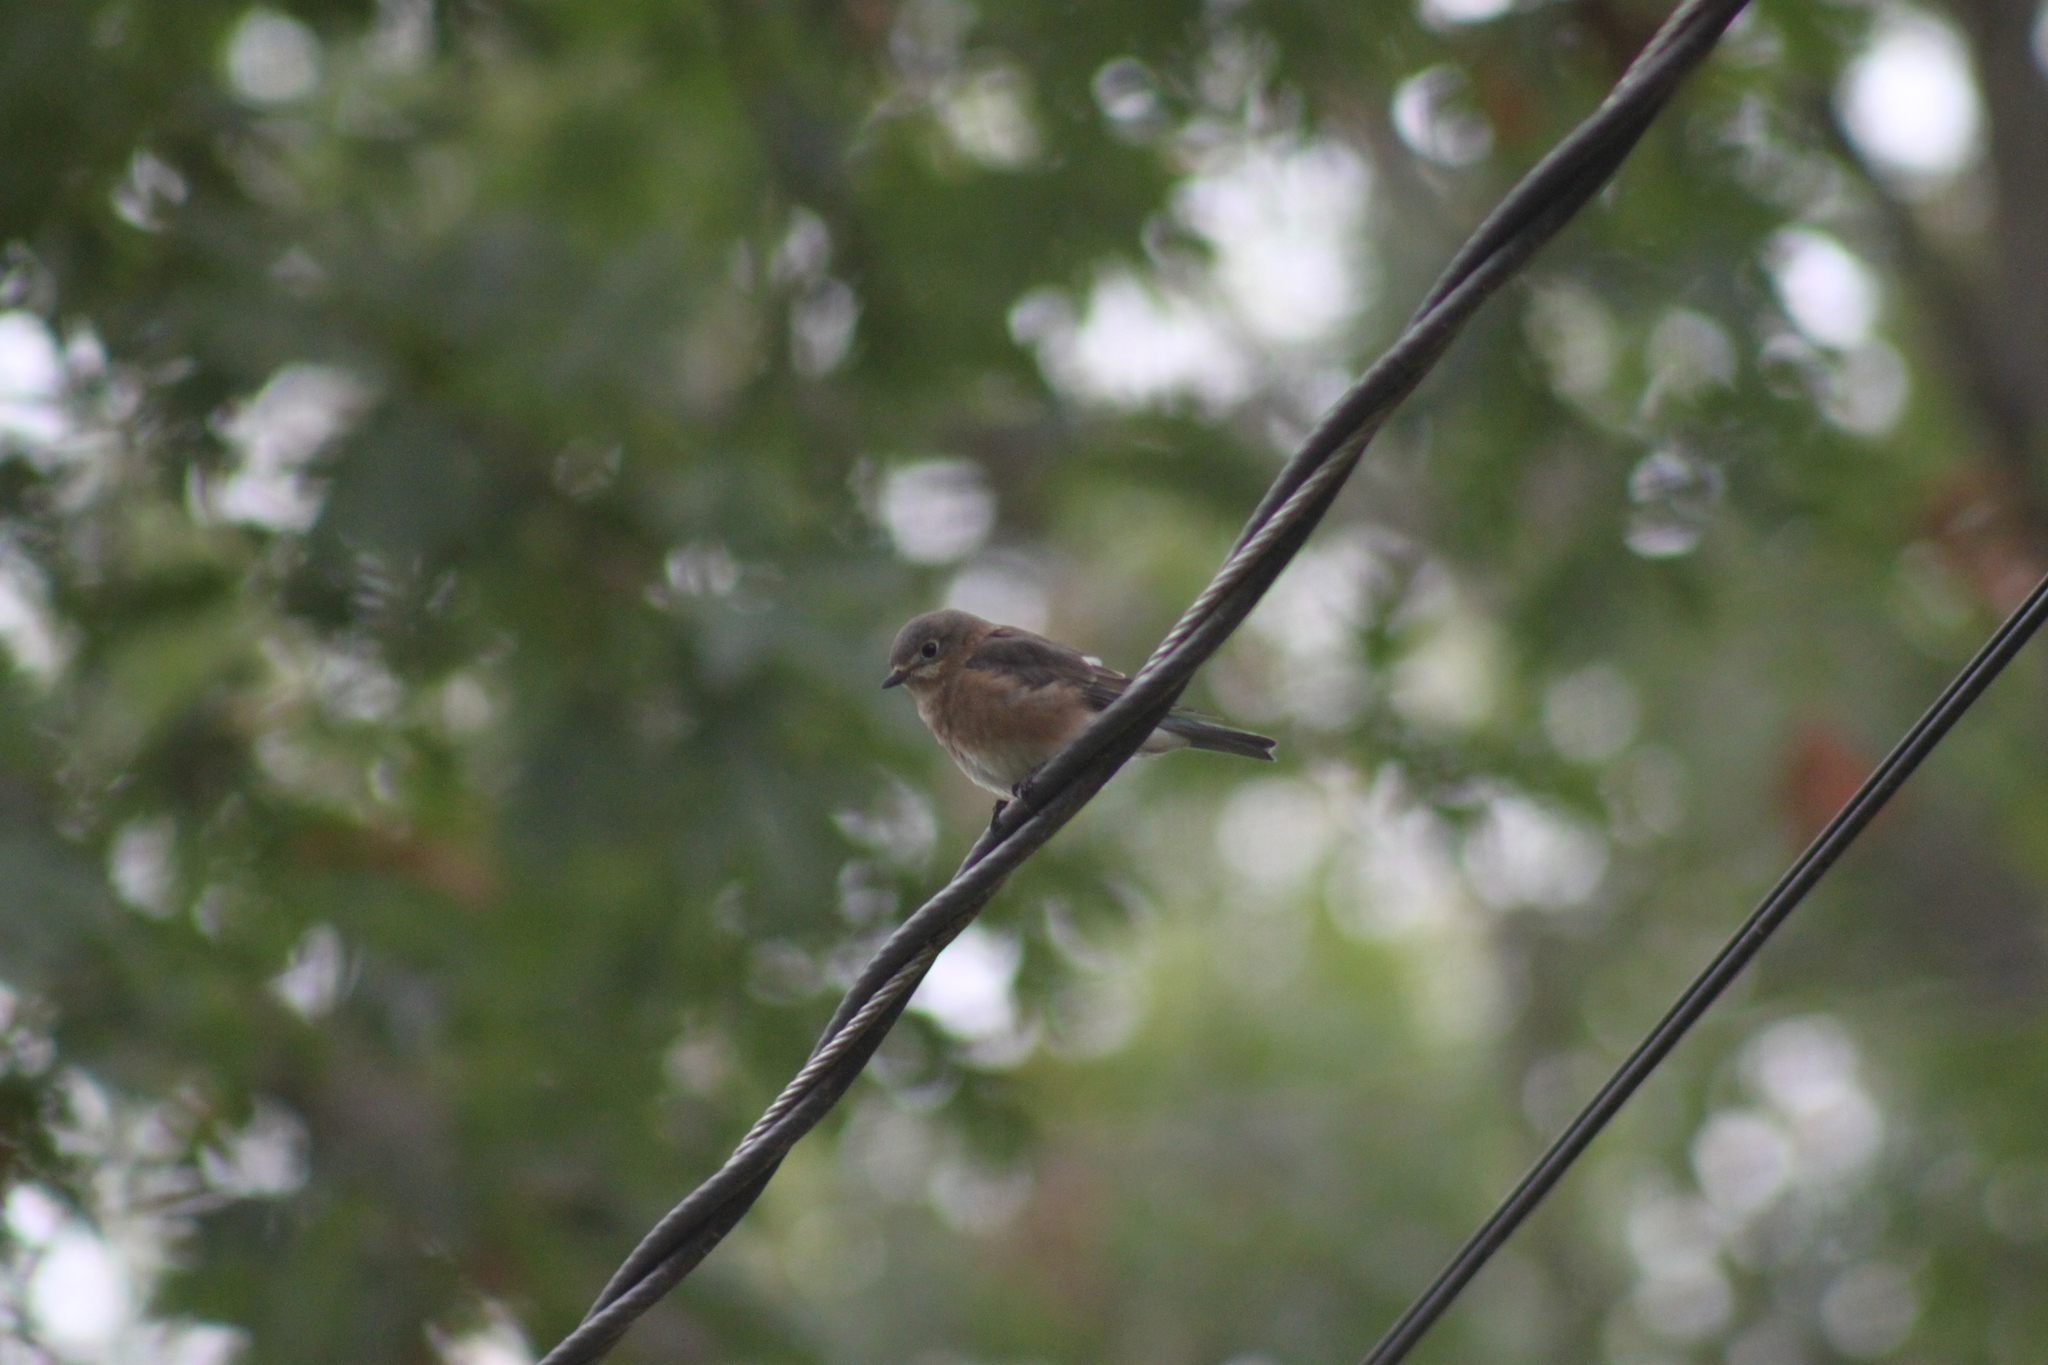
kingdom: Animalia
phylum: Chordata
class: Aves
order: Passeriformes
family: Turdidae
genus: Sialia
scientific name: Sialia sialis
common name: Eastern bluebird
